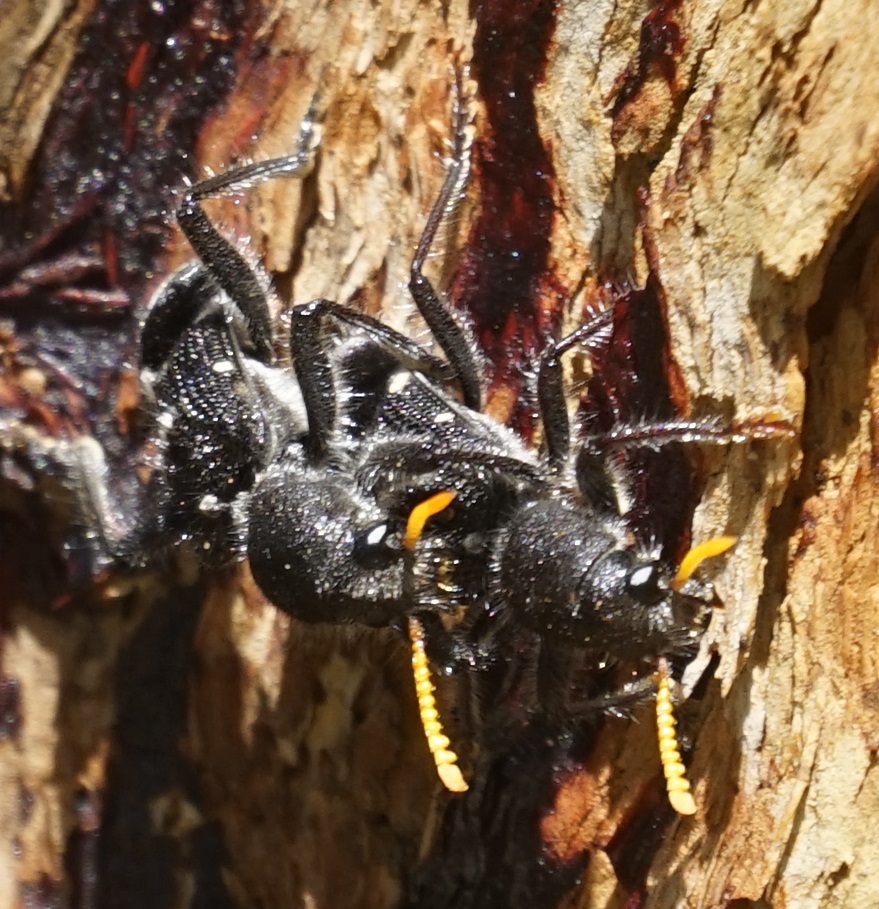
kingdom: Animalia
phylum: Arthropoda
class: Insecta
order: Coleoptera
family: Cleridae
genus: Trogodendron
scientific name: Trogodendron fasiculatum
